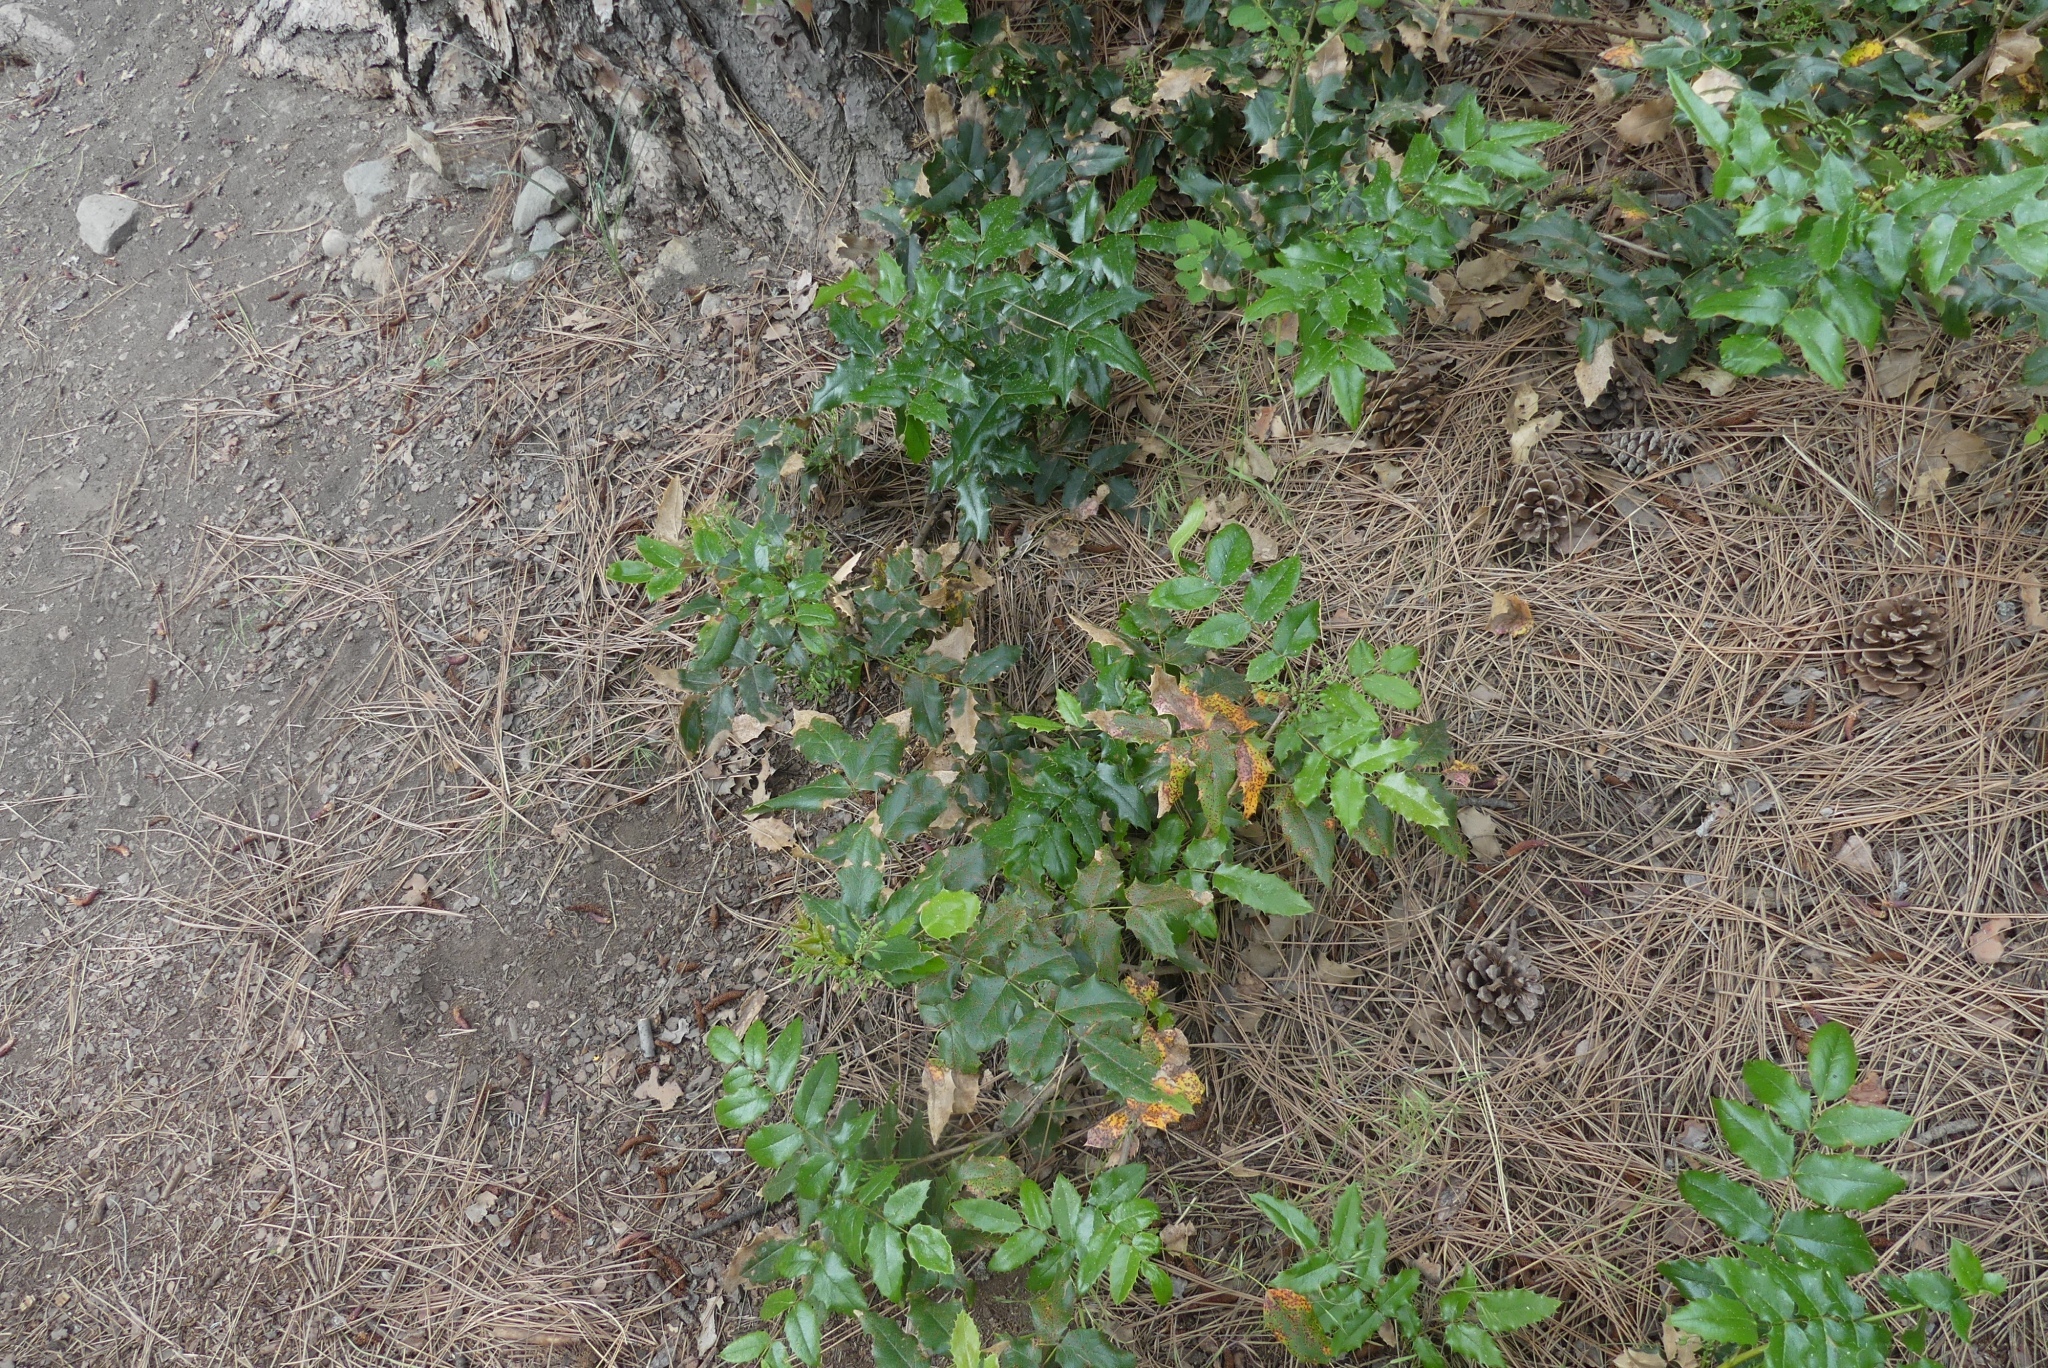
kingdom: Plantae
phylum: Tracheophyta
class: Magnoliopsida
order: Ranunculales
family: Berberidaceae
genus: Mahonia
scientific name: Mahonia aquifolium
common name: Oregon-grape
